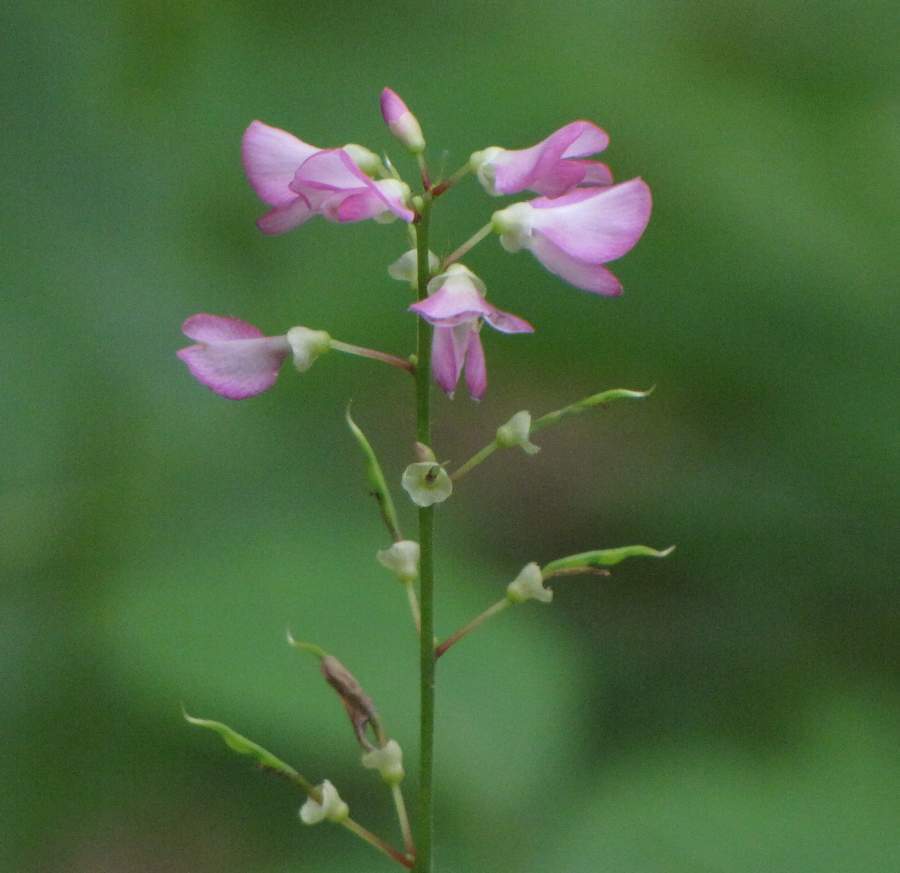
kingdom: Plantae
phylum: Tracheophyta
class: Magnoliopsida
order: Fabales
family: Fabaceae
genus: Hylodesmum
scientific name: Hylodesmum glutinosum
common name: Clustered-leaved tick-trefoil
